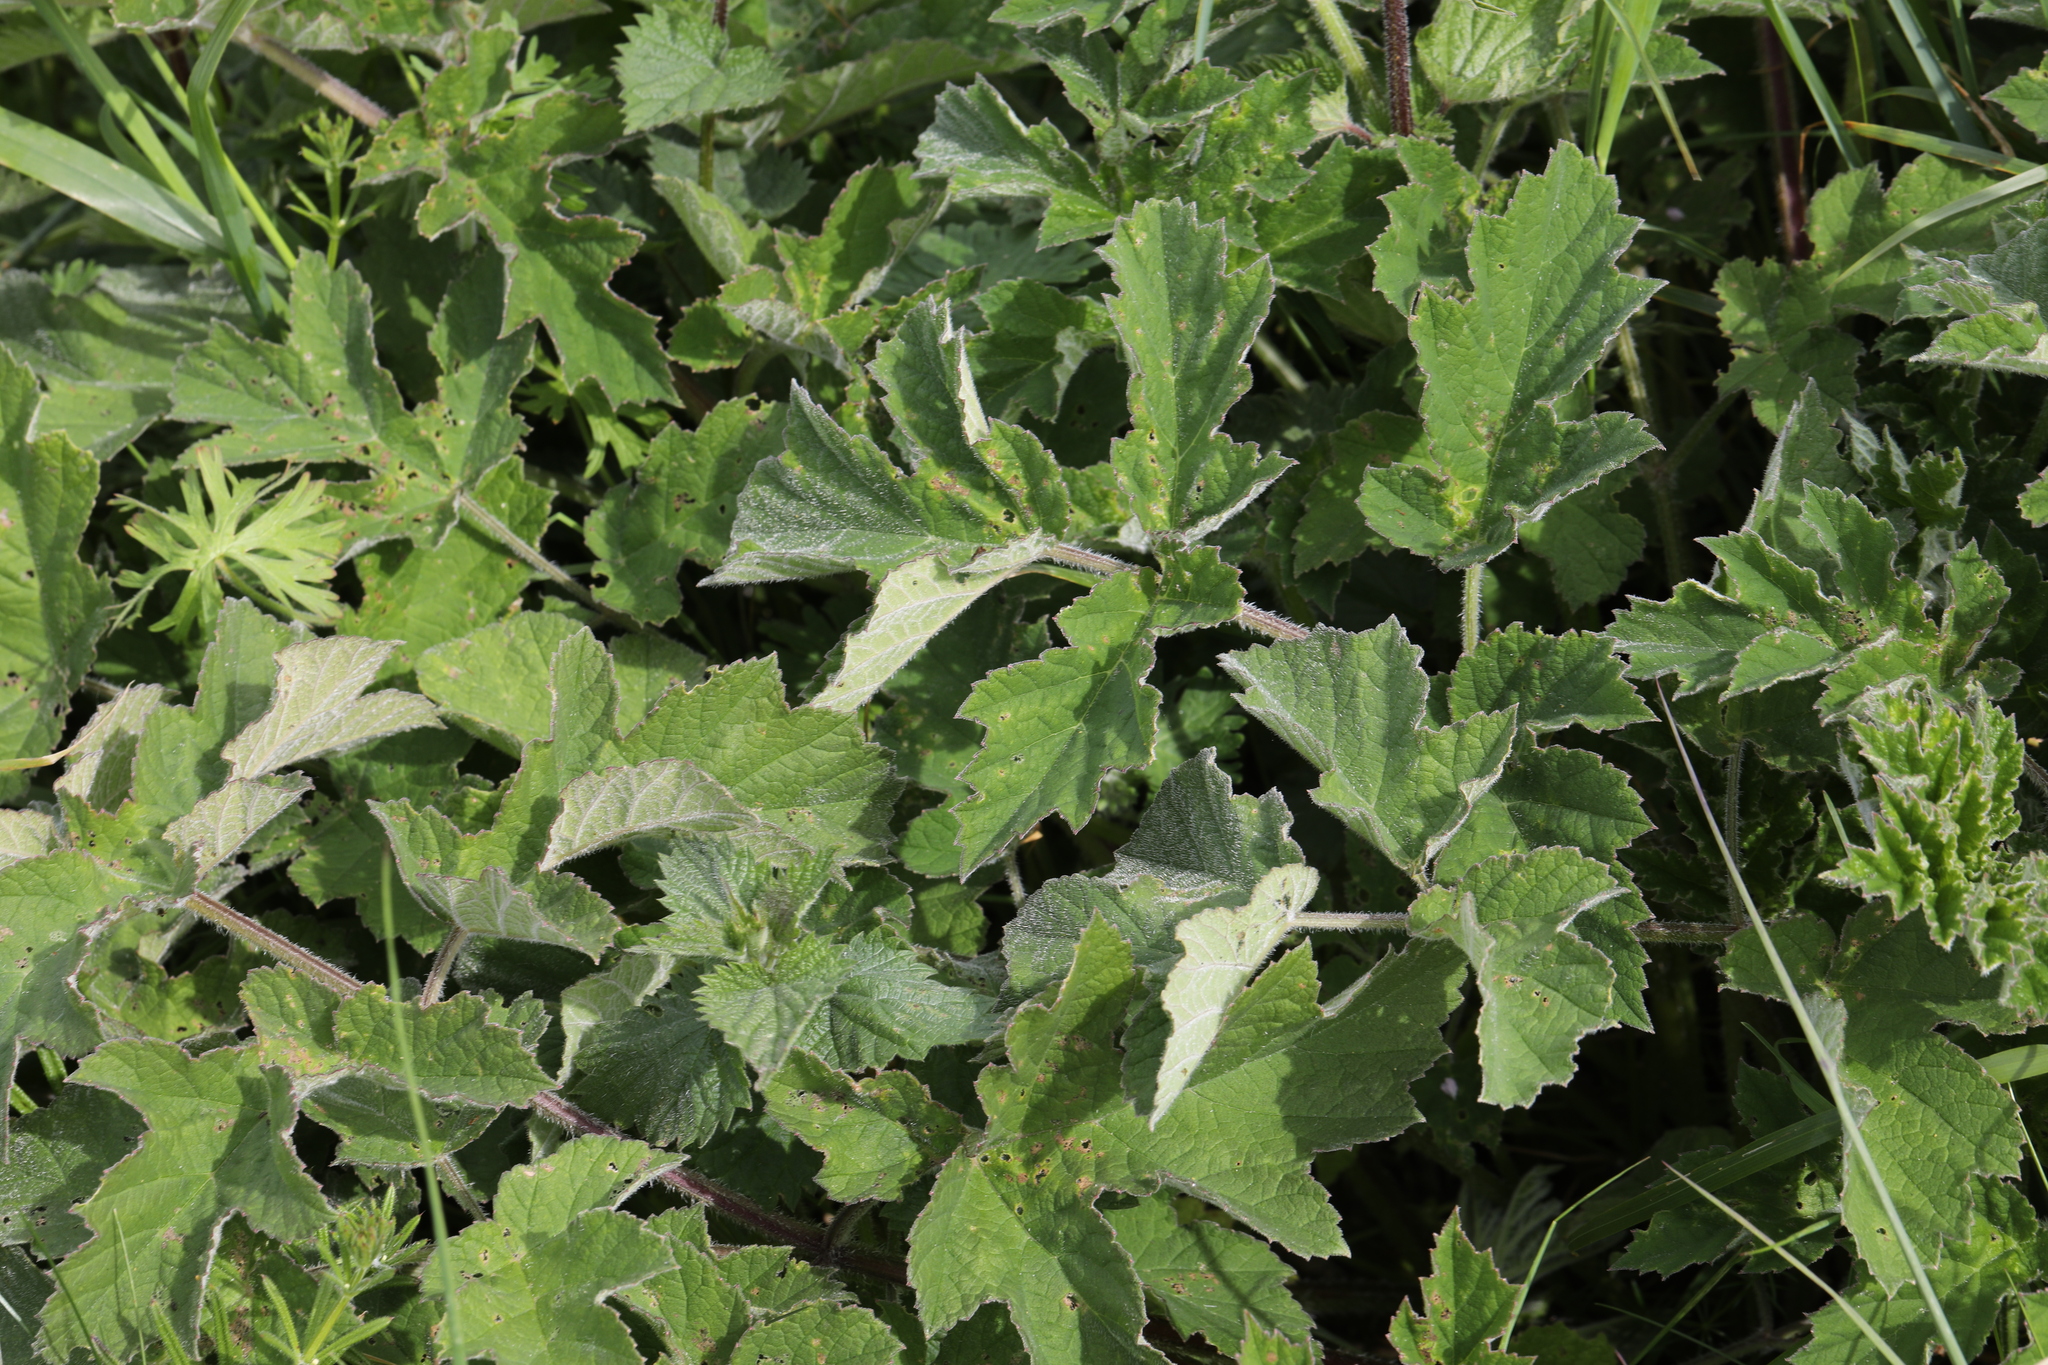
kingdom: Plantae
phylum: Tracheophyta
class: Magnoliopsida
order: Apiales
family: Apiaceae
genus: Heracleum
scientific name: Heracleum sphondylium
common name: Hogweed
